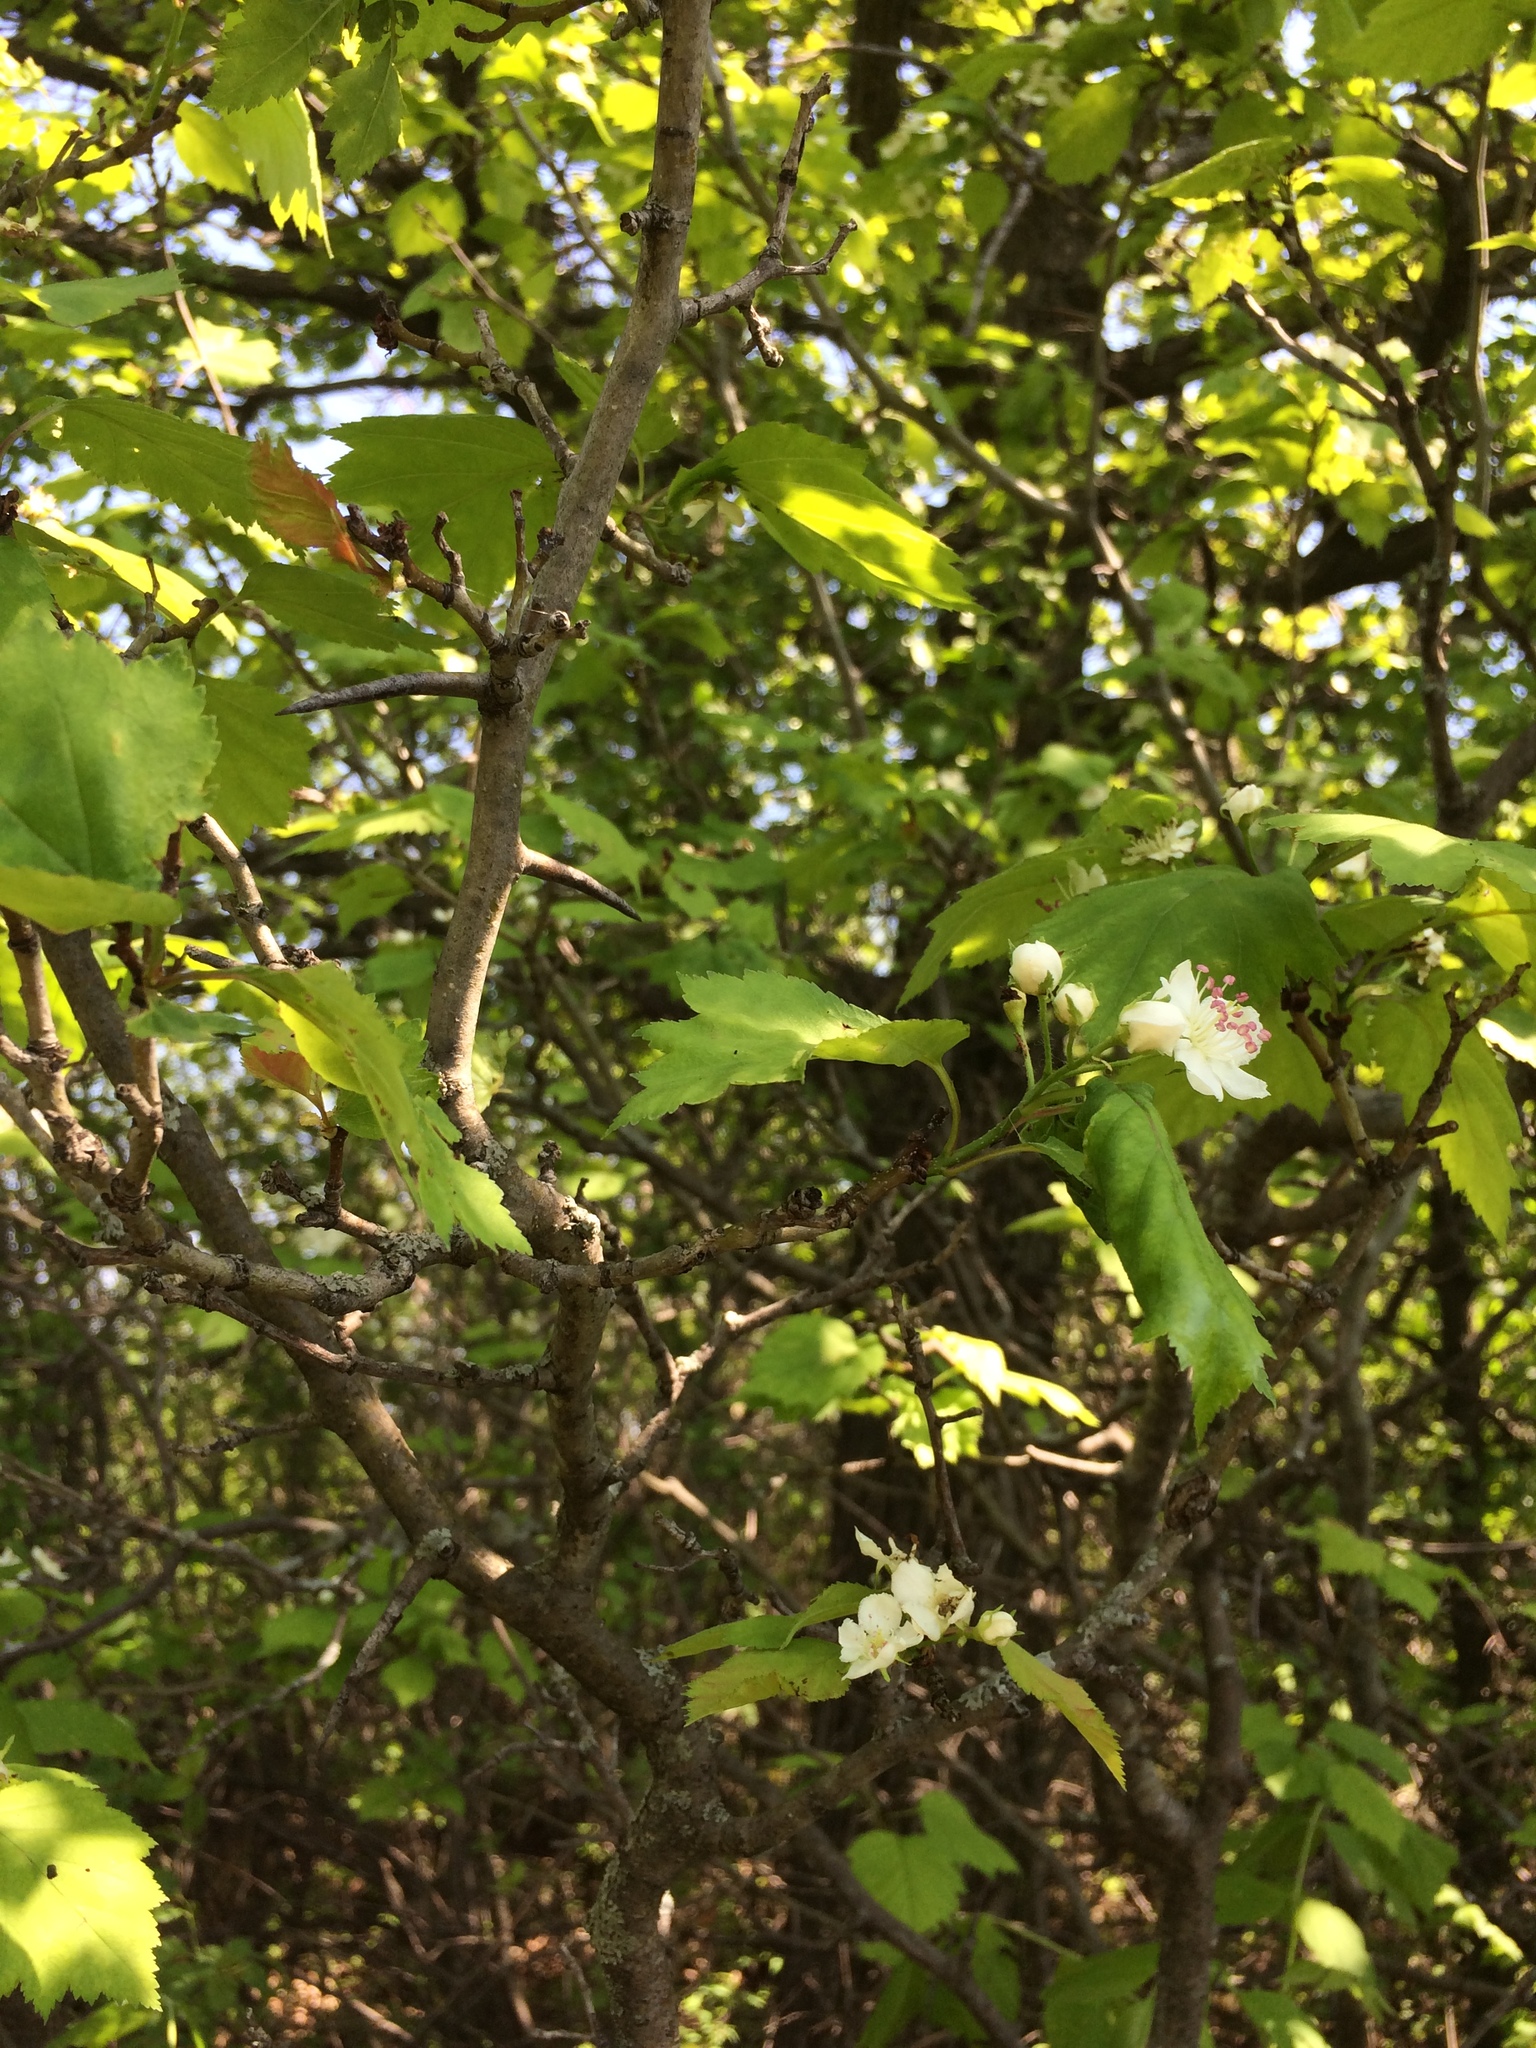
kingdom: Plantae
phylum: Tracheophyta
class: Magnoliopsida
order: Rosales
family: Rosaceae
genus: Crataegus
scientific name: Crataegus schuettei
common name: Schuette's hawthorn
